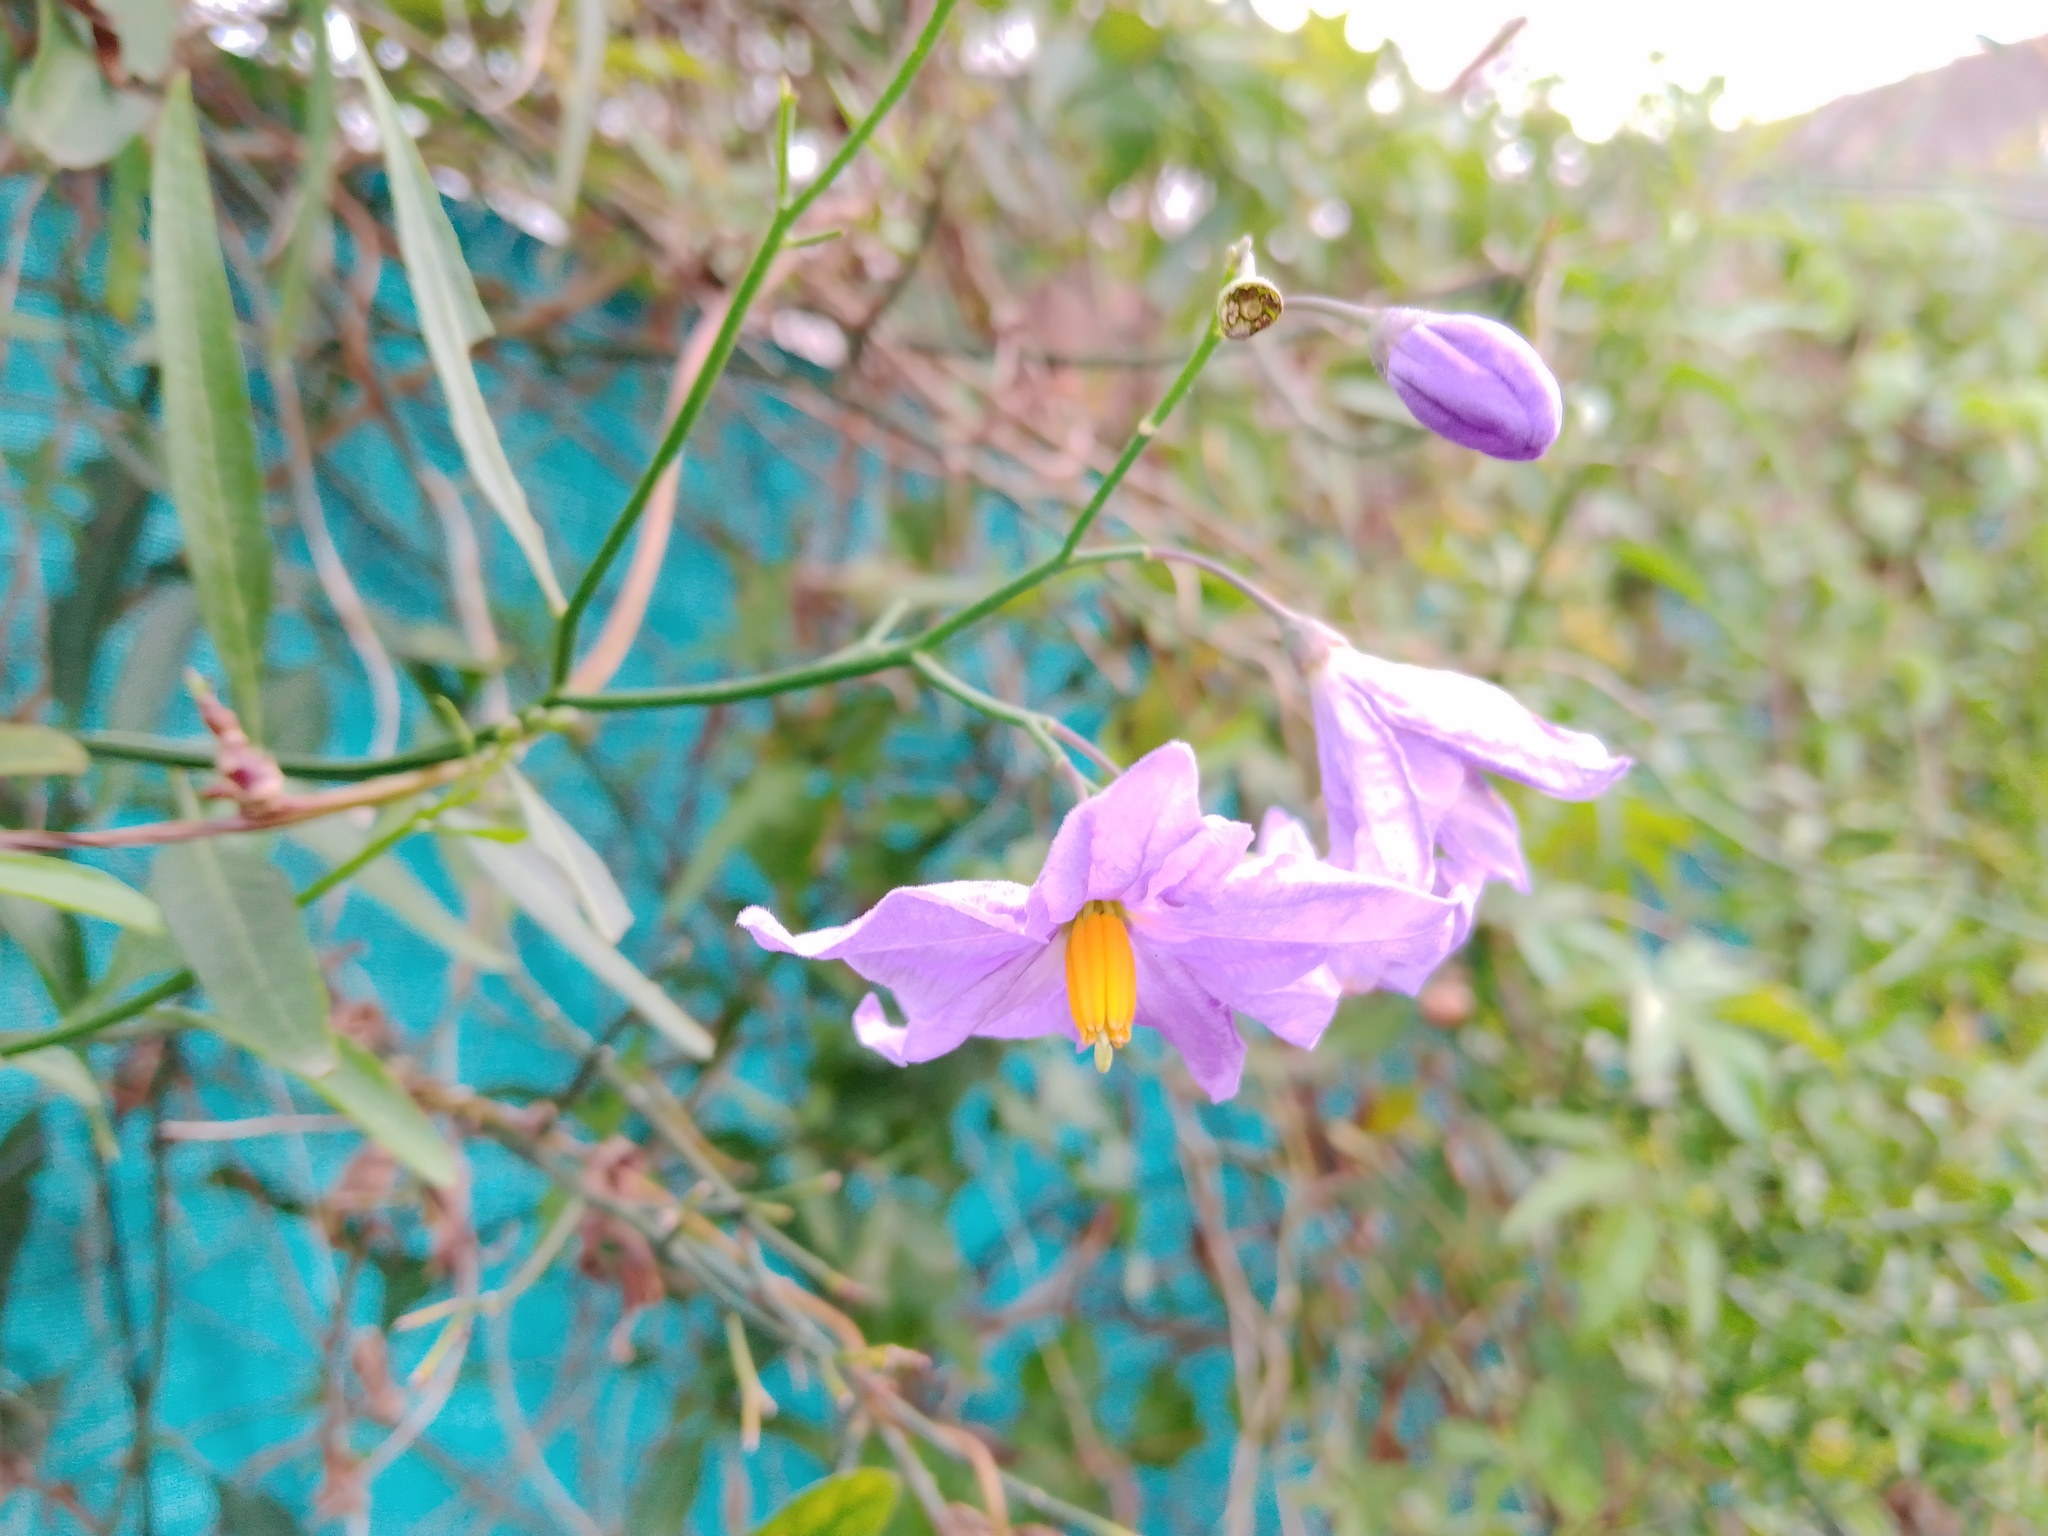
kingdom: Plantae
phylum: Tracheophyta
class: Magnoliopsida
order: Solanales
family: Solanaceae
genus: Solanum
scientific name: Solanum amygdalifolium
